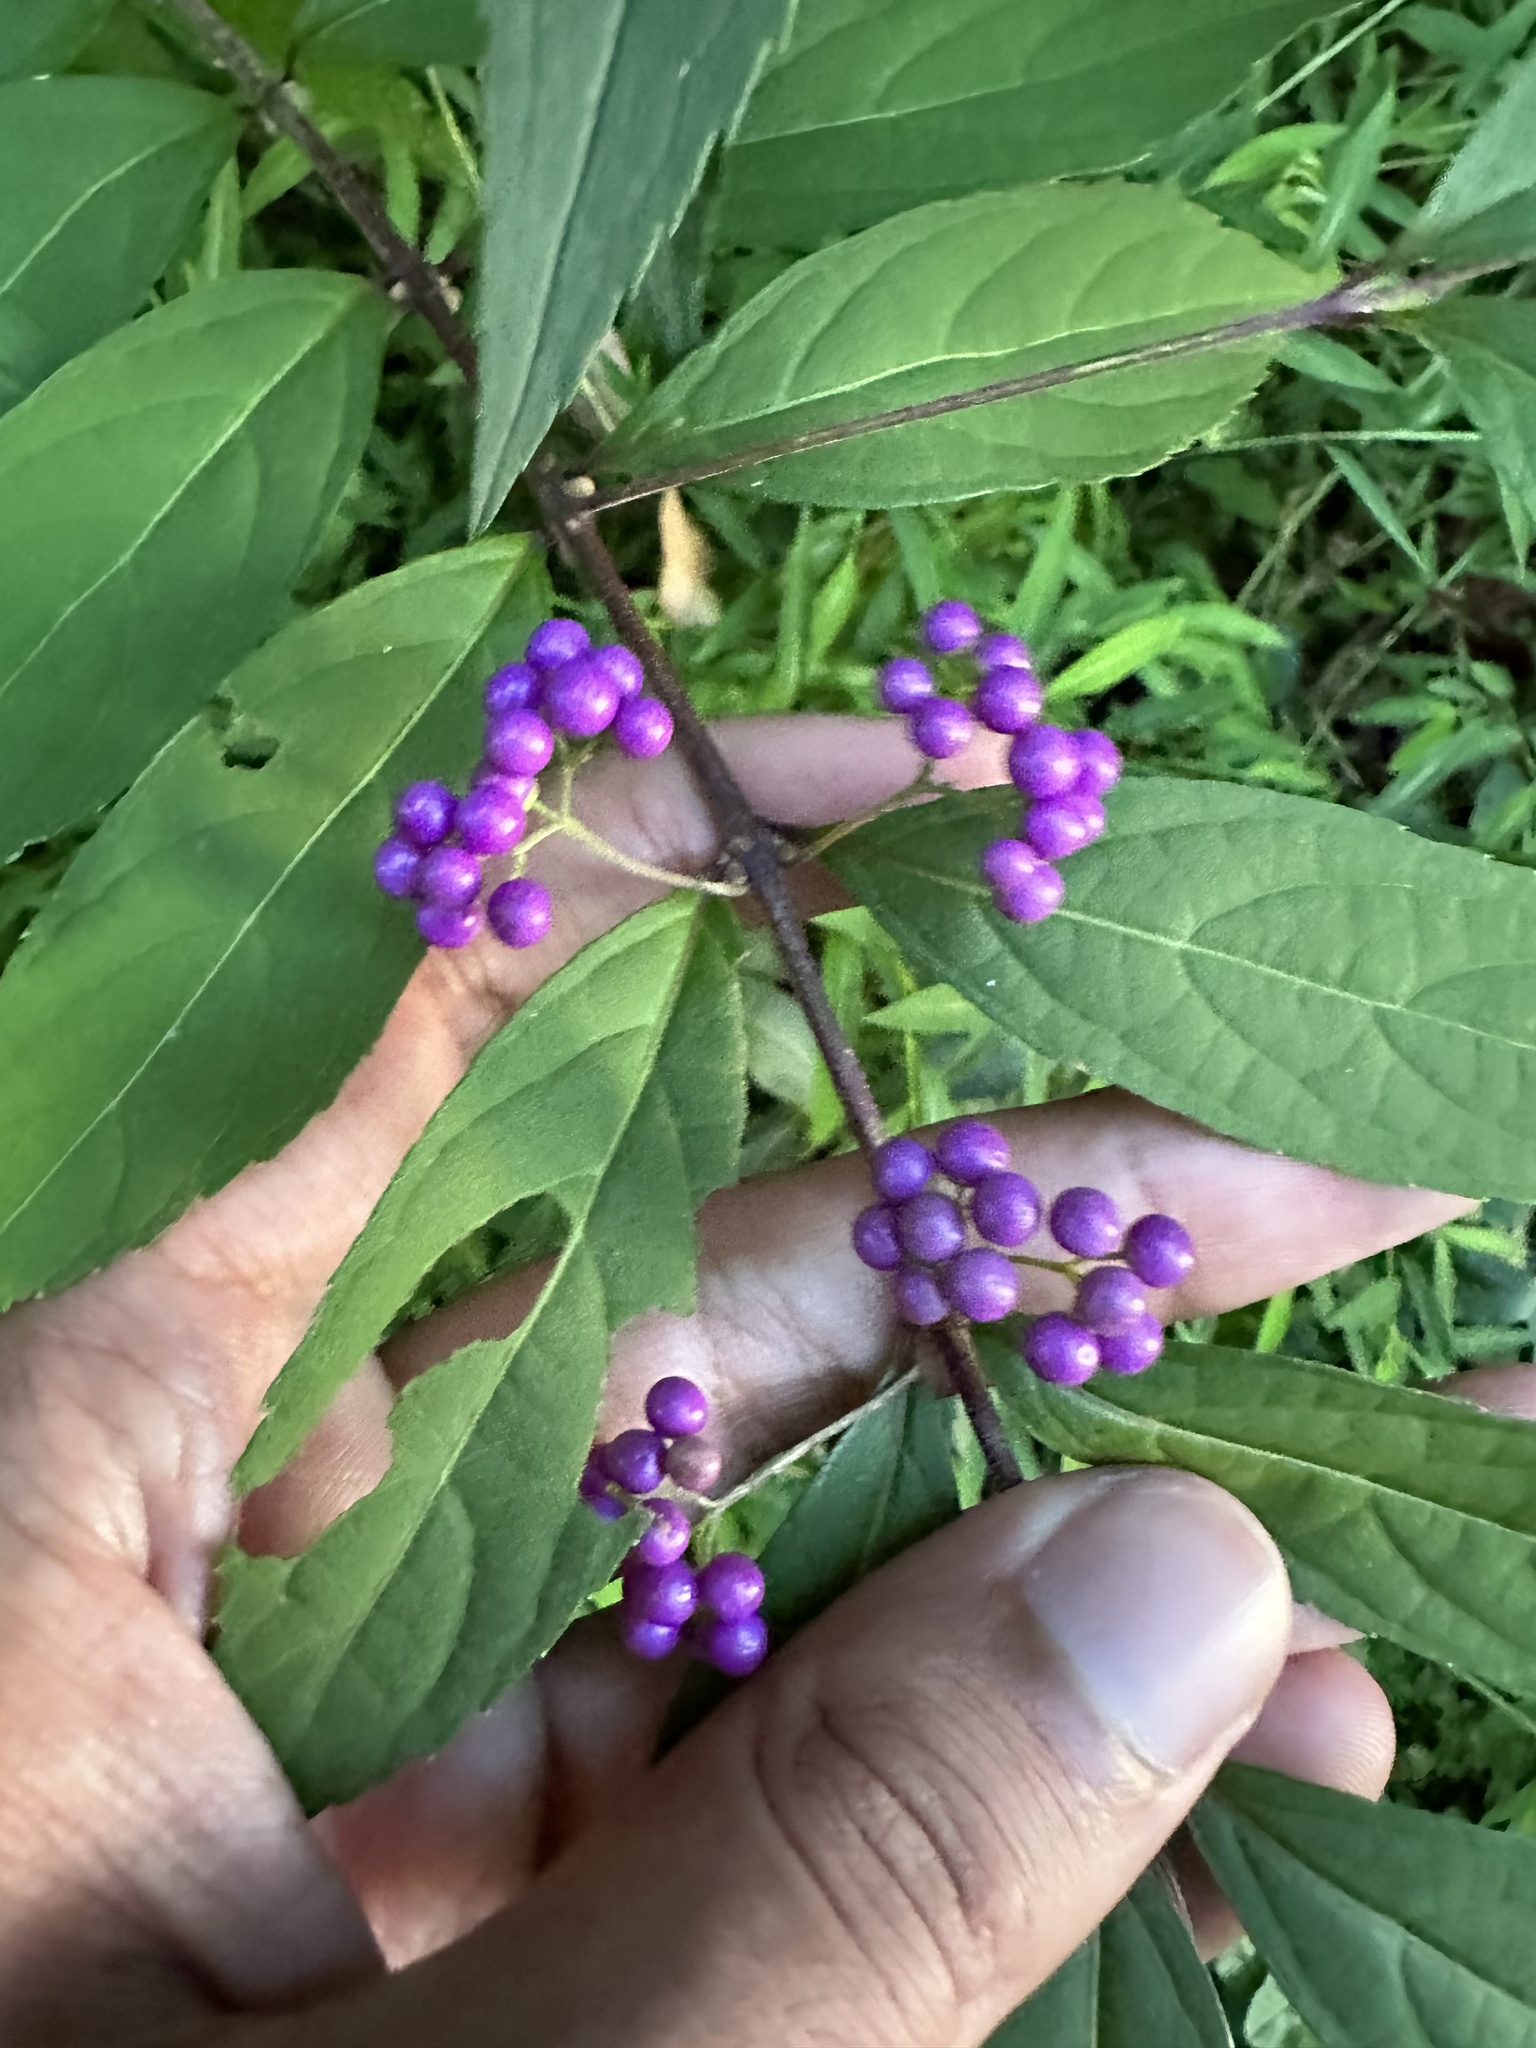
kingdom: Plantae
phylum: Tracheophyta
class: Magnoliopsida
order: Lamiales
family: Lamiaceae
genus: Callicarpa
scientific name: Callicarpa dichotoma
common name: Purple beauty-berry
